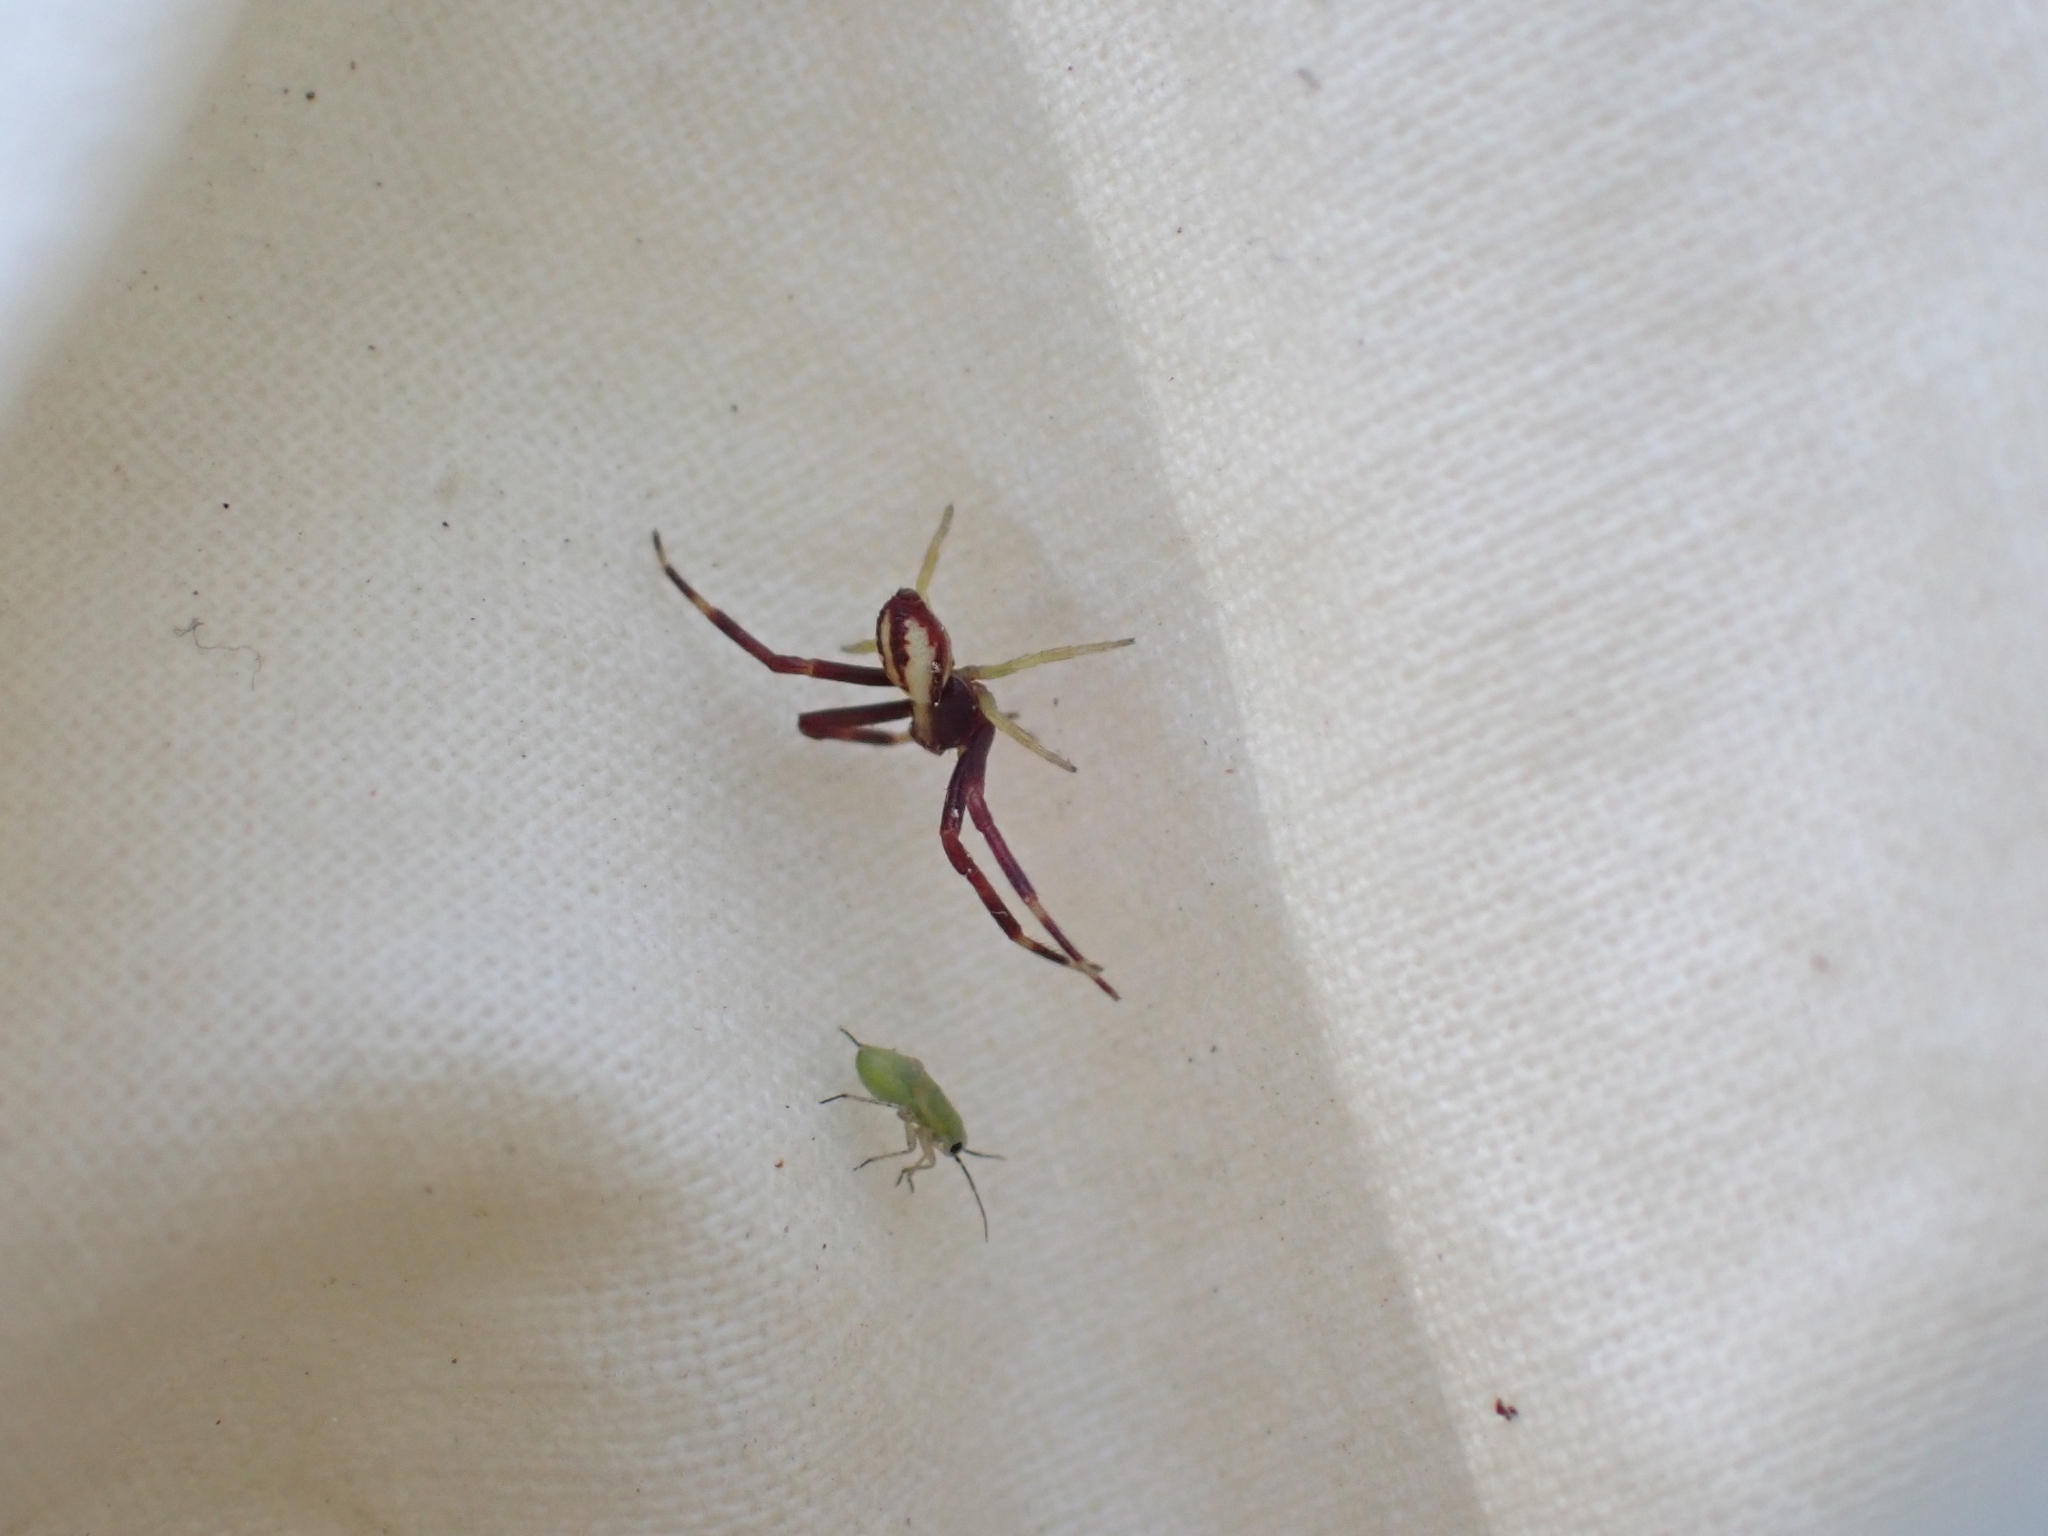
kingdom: Animalia
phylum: Arthropoda
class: Arachnida
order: Araneae
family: Thomisidae
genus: Misumena
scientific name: Misumena vatia
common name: Goldenrod crab spider
